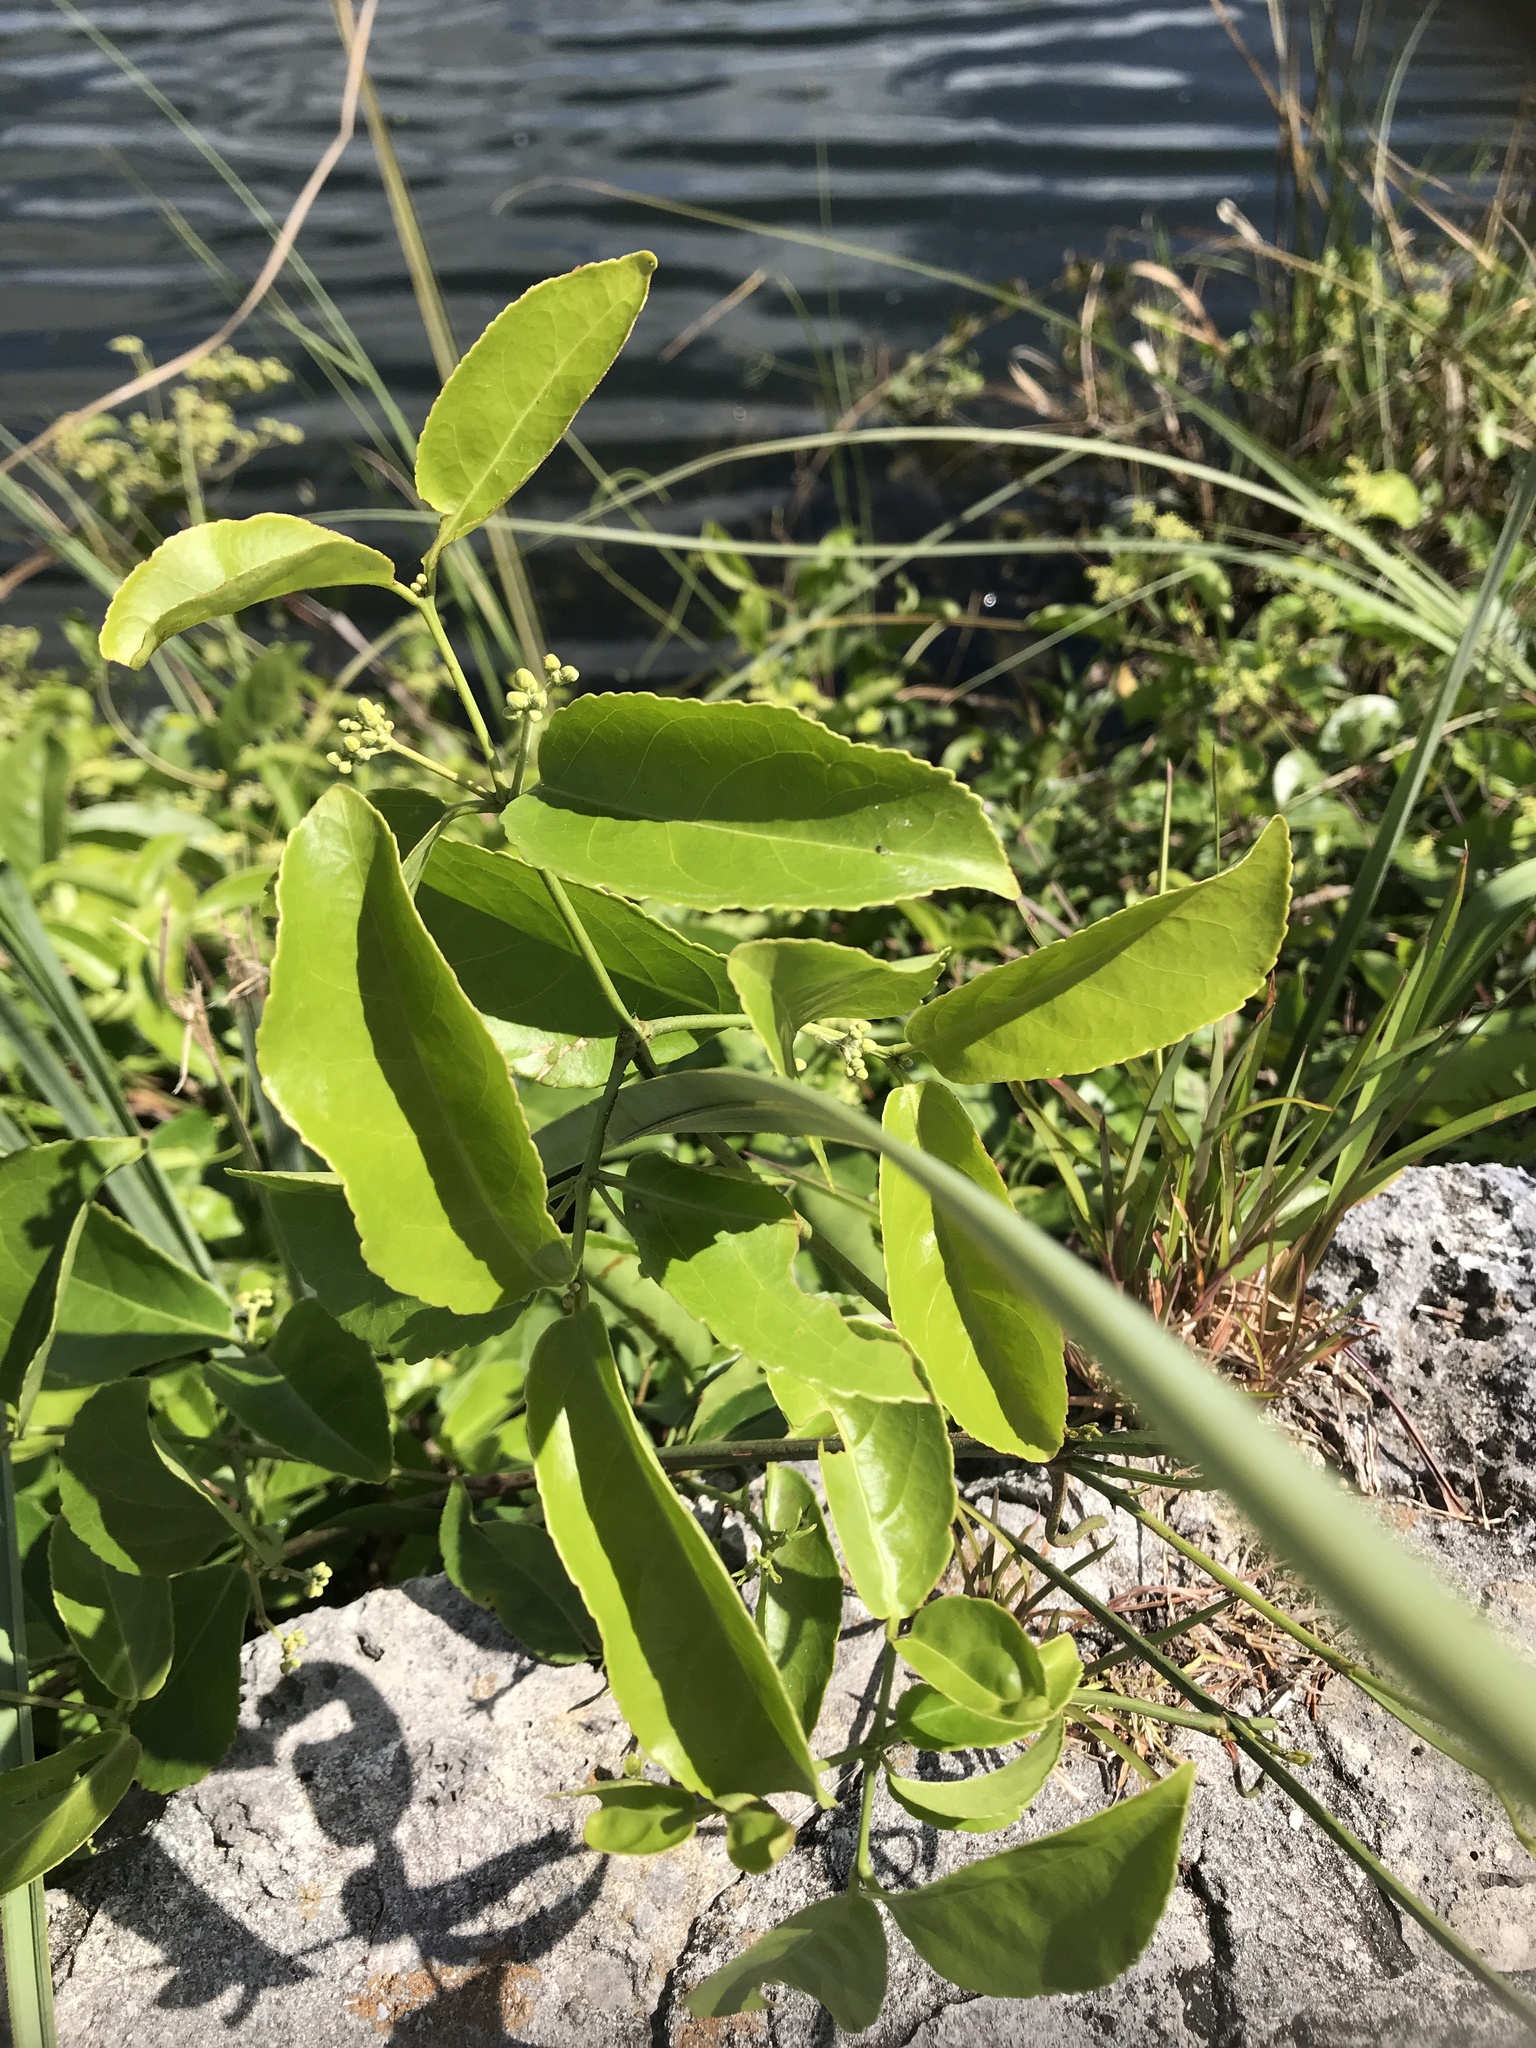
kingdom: Plantae
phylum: Tracheophyta
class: Magnoliopsida
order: Celastrales
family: Celastraceae
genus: Hippocratea
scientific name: Hippocratea volubilis
